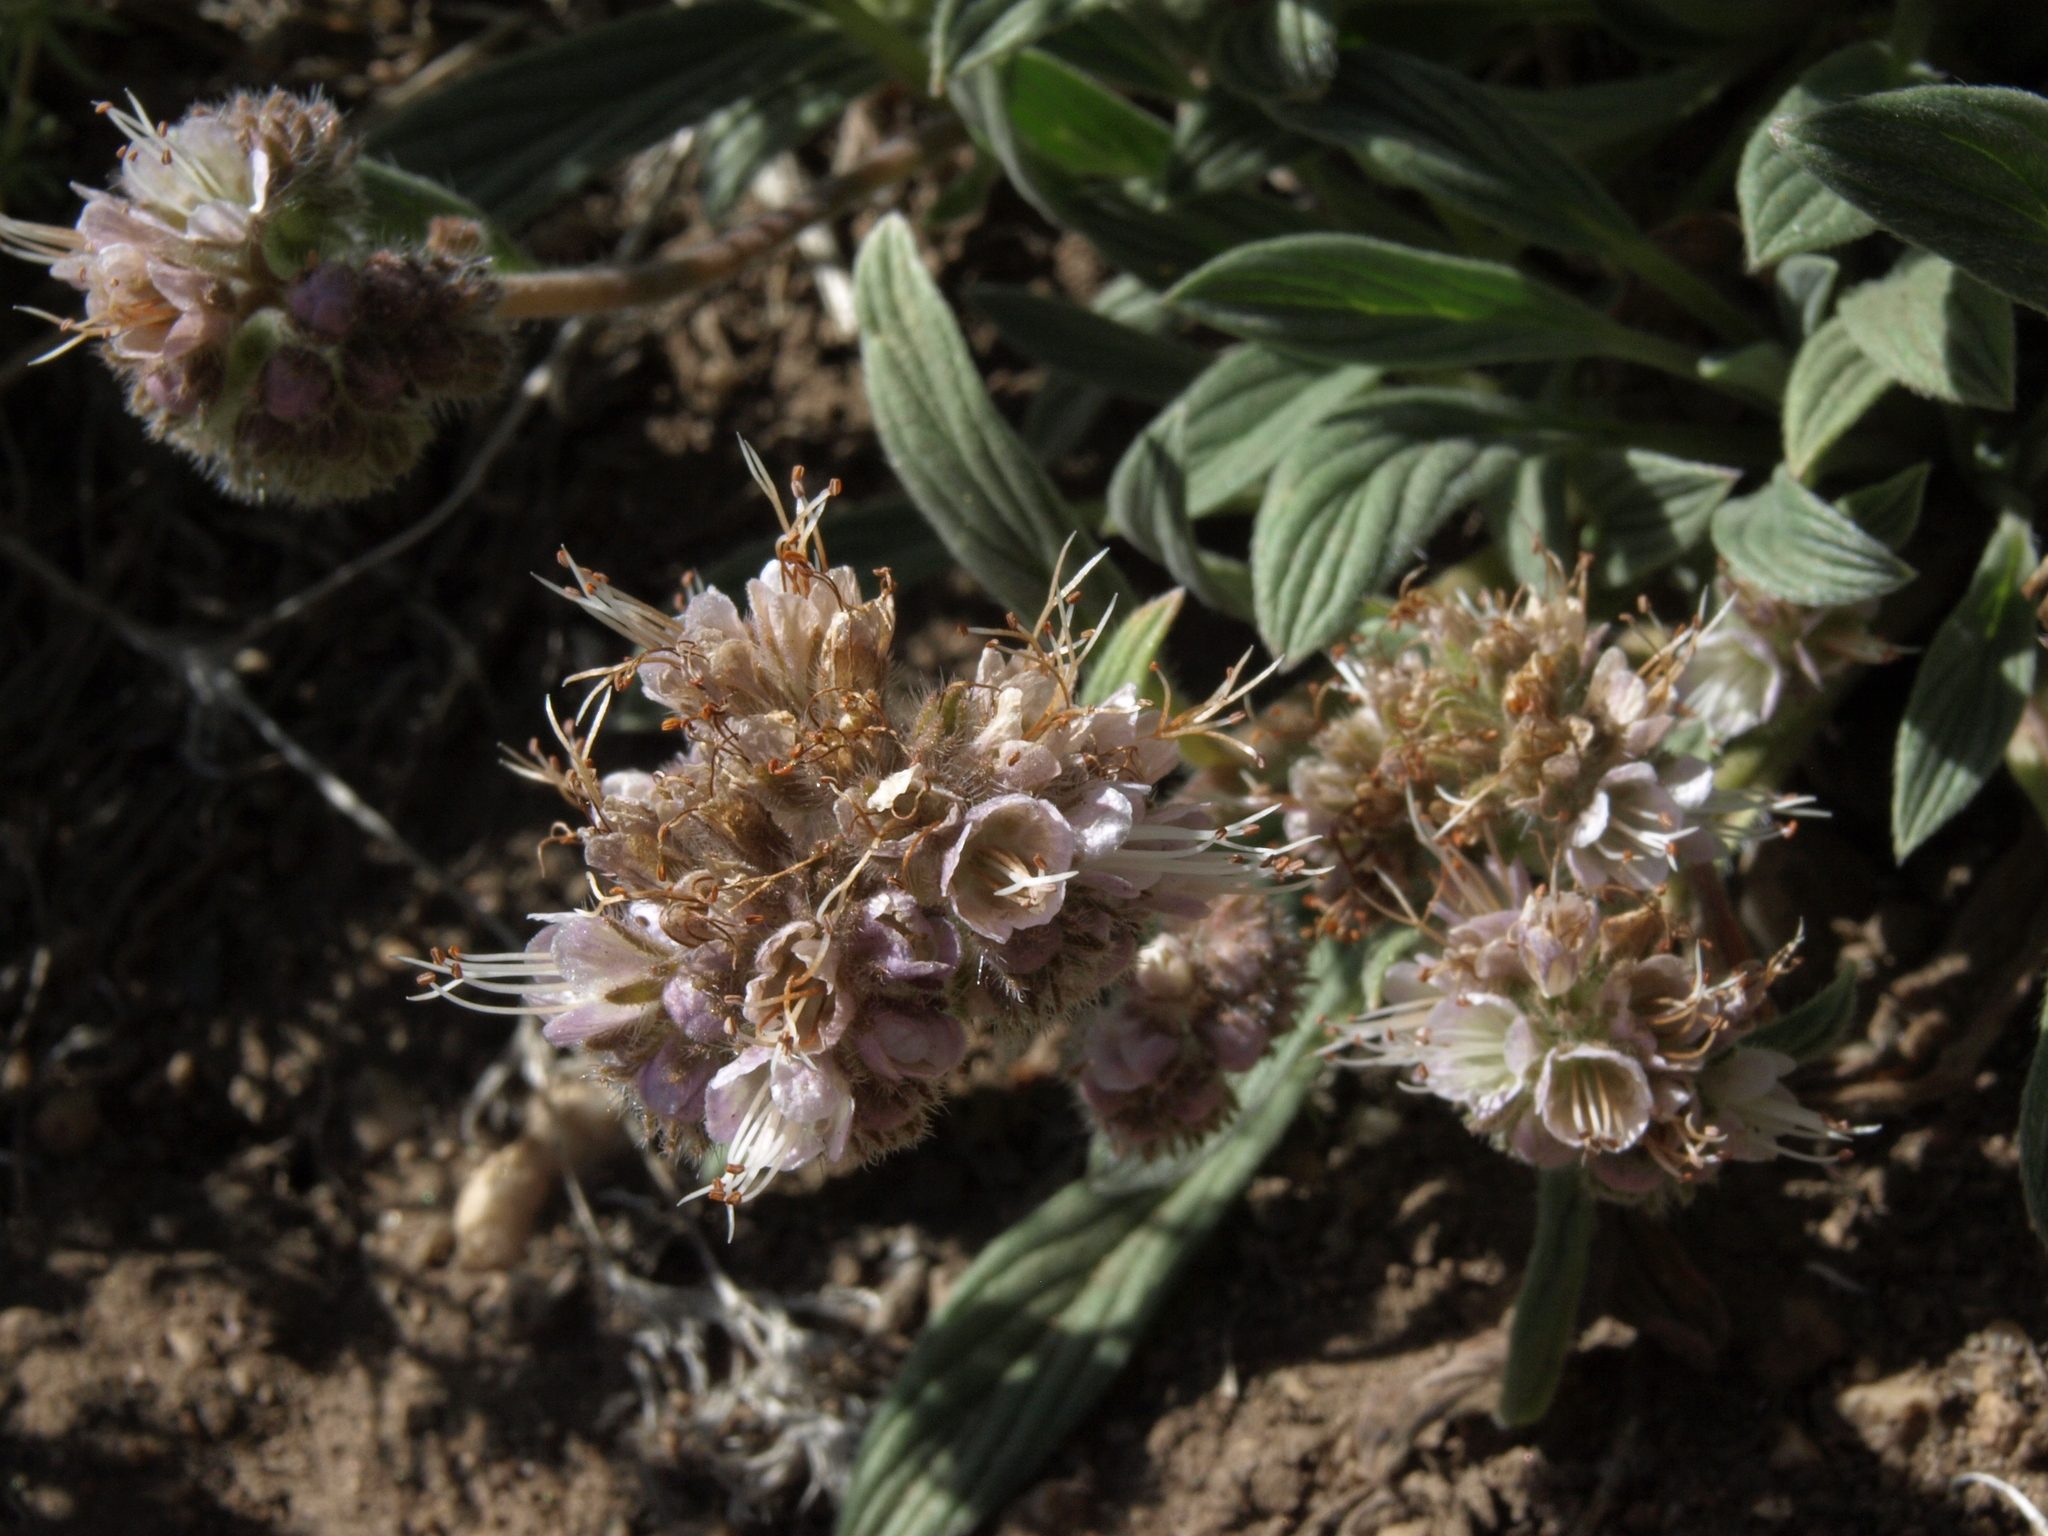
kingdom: Plantae
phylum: Tracheophyta
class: Magnoliopsida
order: Boraginales
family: Hydrophyllaceae
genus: Phacelia
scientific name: Phacelia hastata
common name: Silver-leaved phacelia
